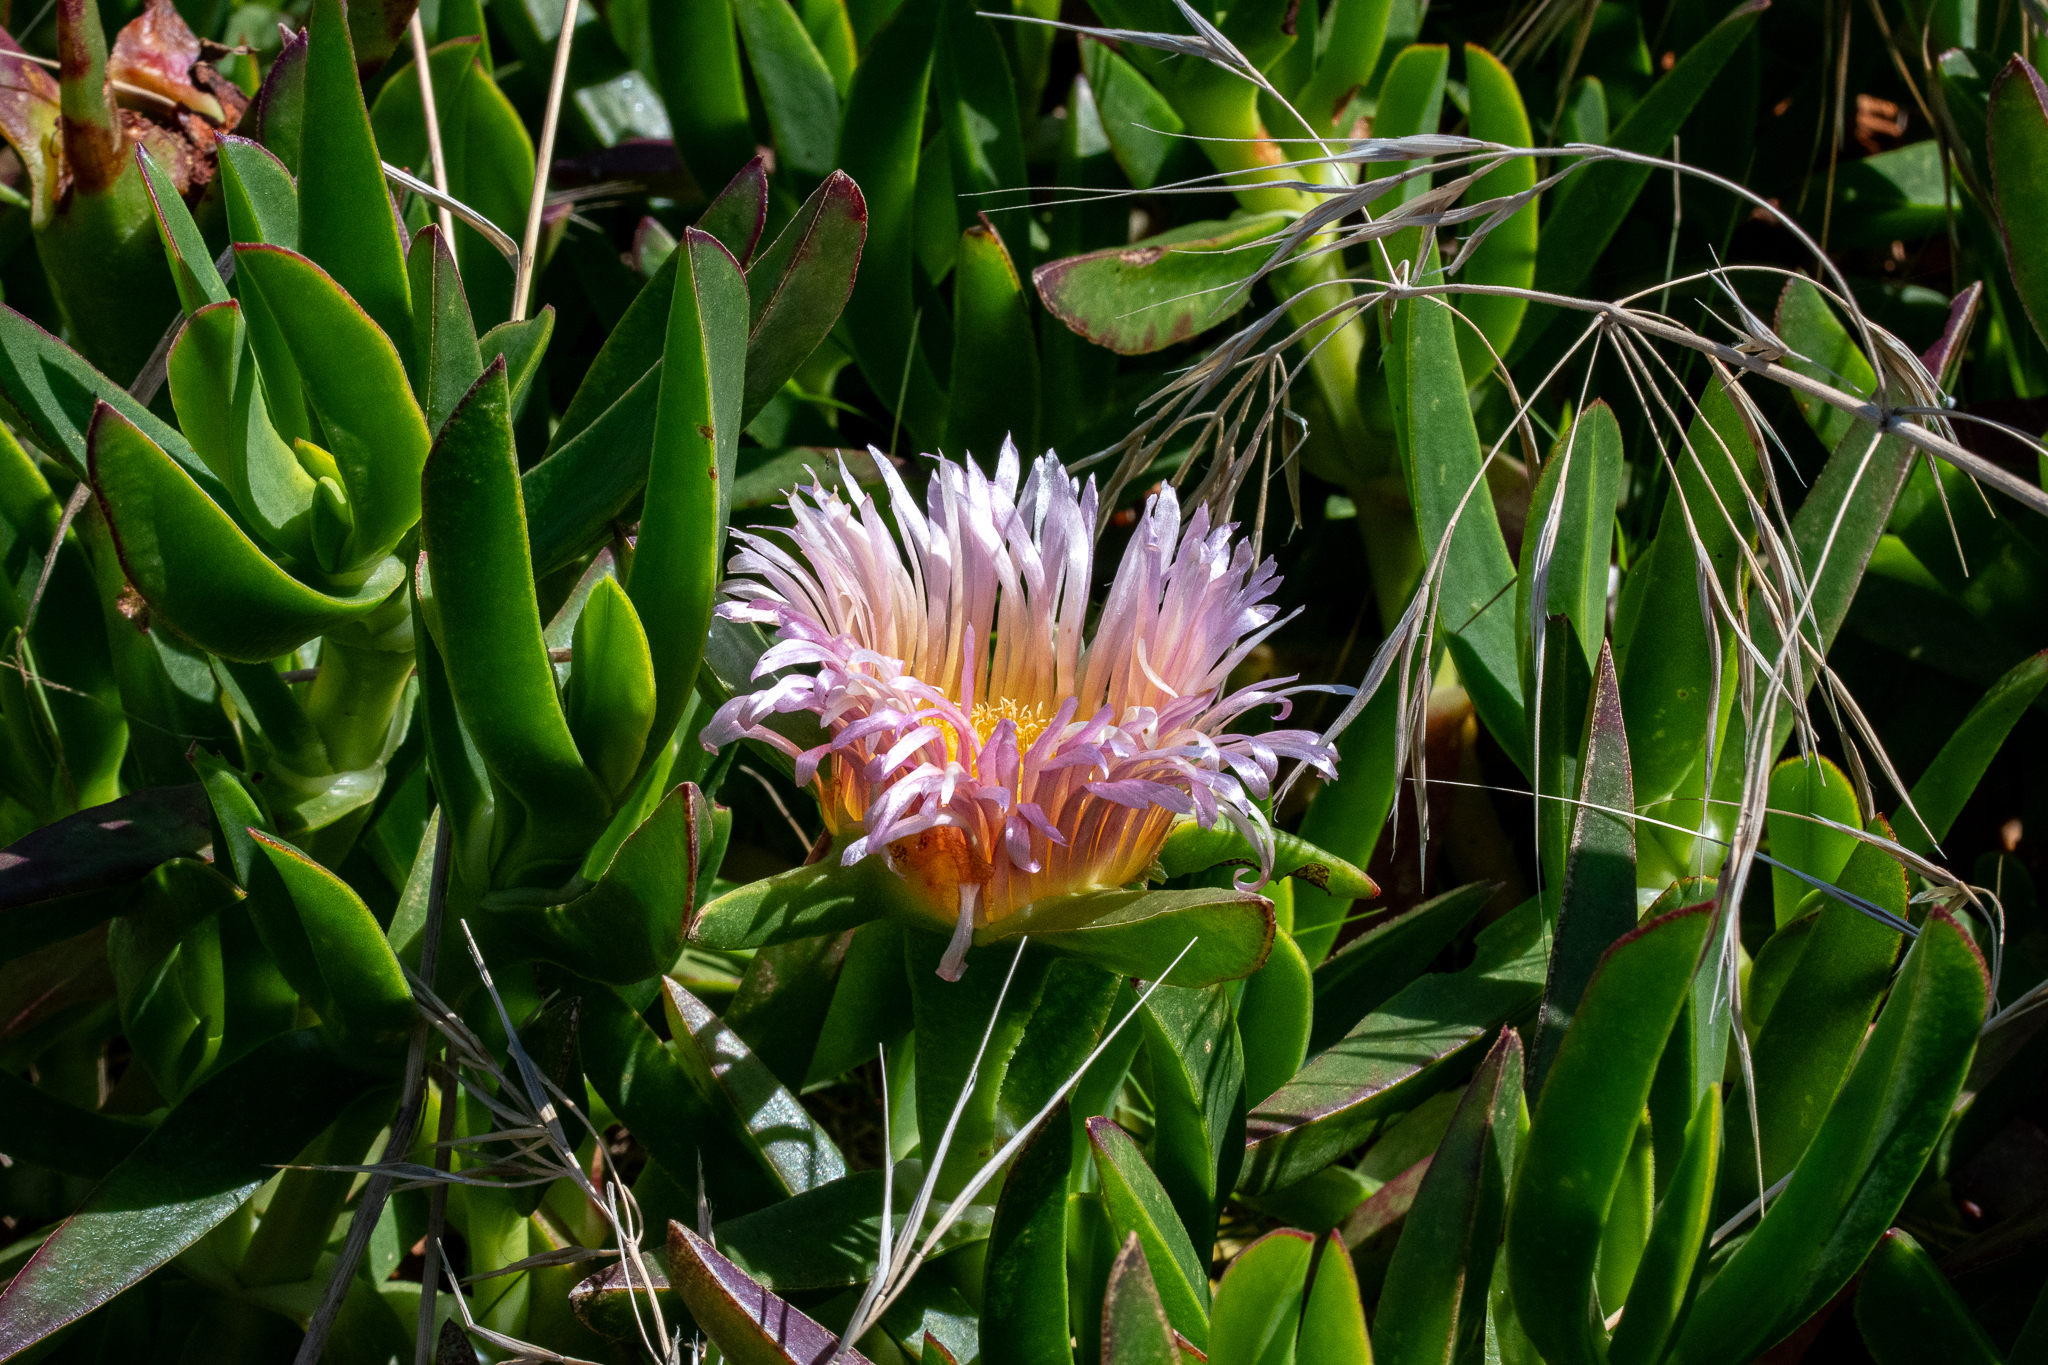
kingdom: Plantae
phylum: Tracheophyta
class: Magnoliopsida
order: Caryophyllales
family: Aizoaceae
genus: Carpobrotus
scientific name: Carpobrotus edulis
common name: Hottentot-fig
